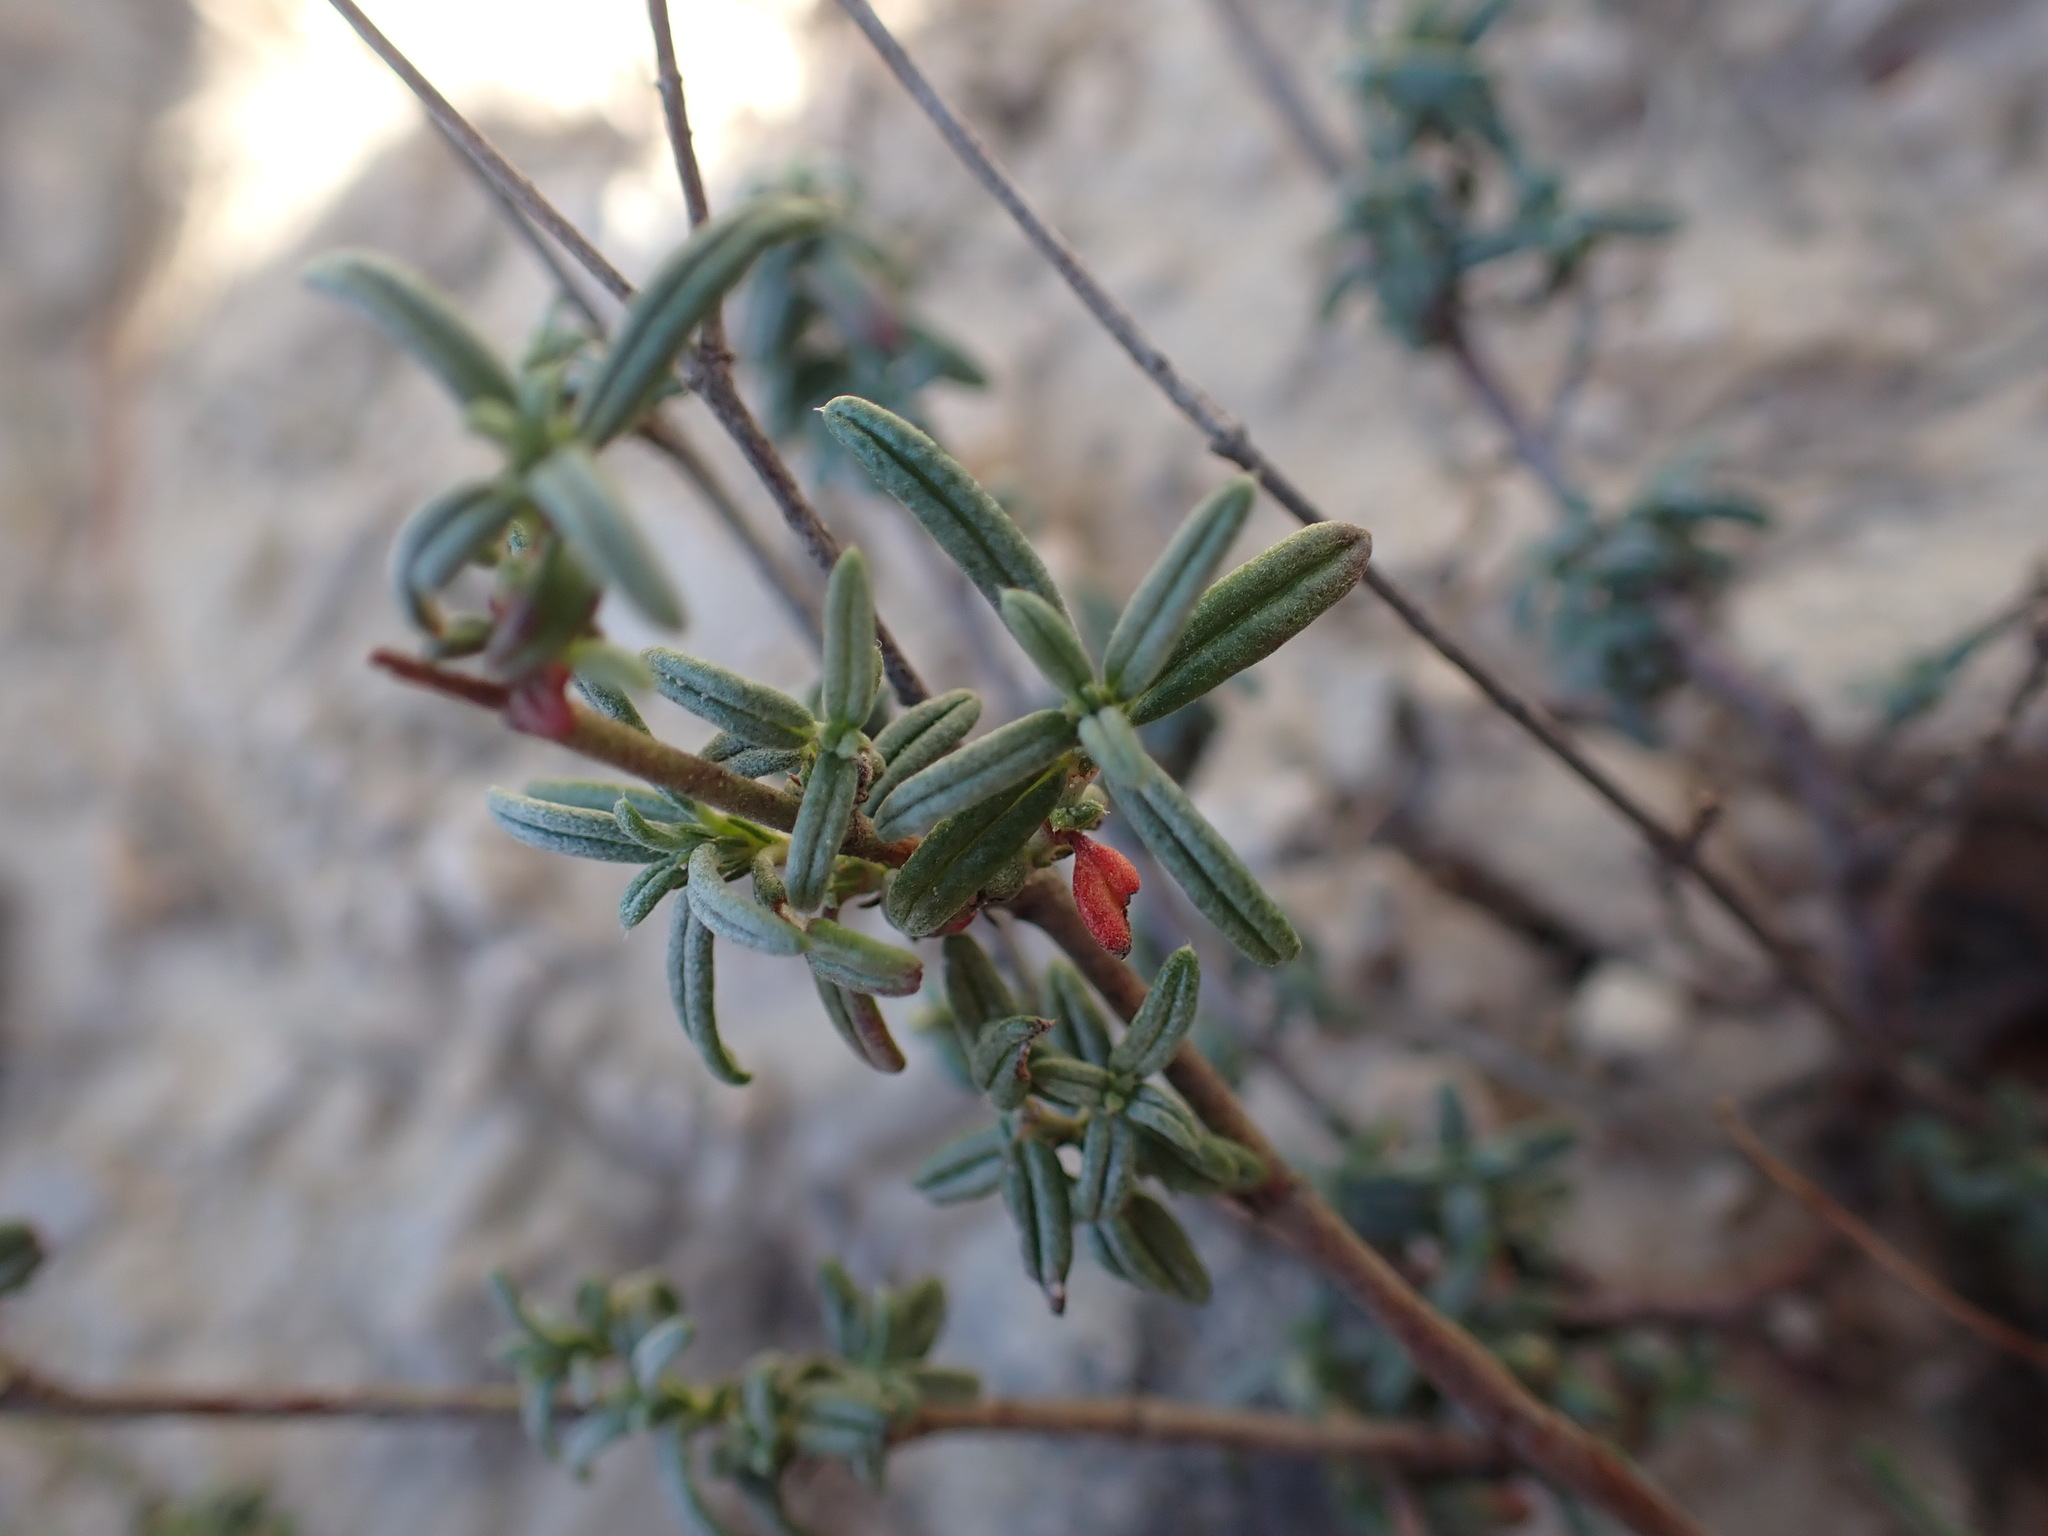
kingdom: Plantae
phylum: Tracheophyta
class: Magnoliopsida
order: Malvales
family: Cistaceae
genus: Helianthemum
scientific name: Helianthemum apenninum
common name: White rock-rose
